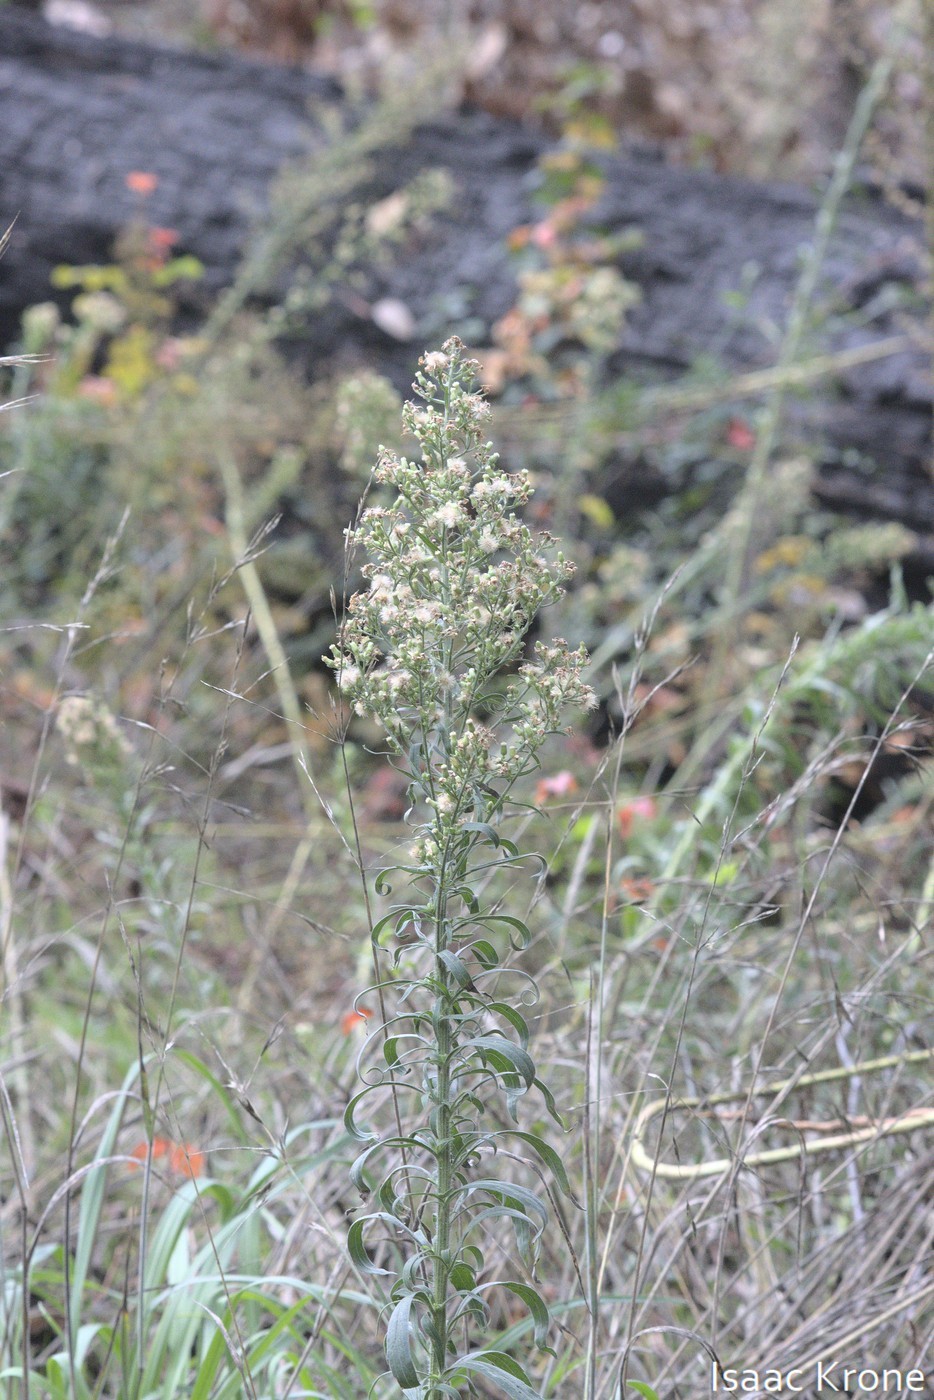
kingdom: Plantae
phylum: Tracheophyta
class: Magnoliopsida
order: Asterales
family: Asteraceae
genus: Erigeron
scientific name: Erigeron canadensis
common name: Canadian fleabane
